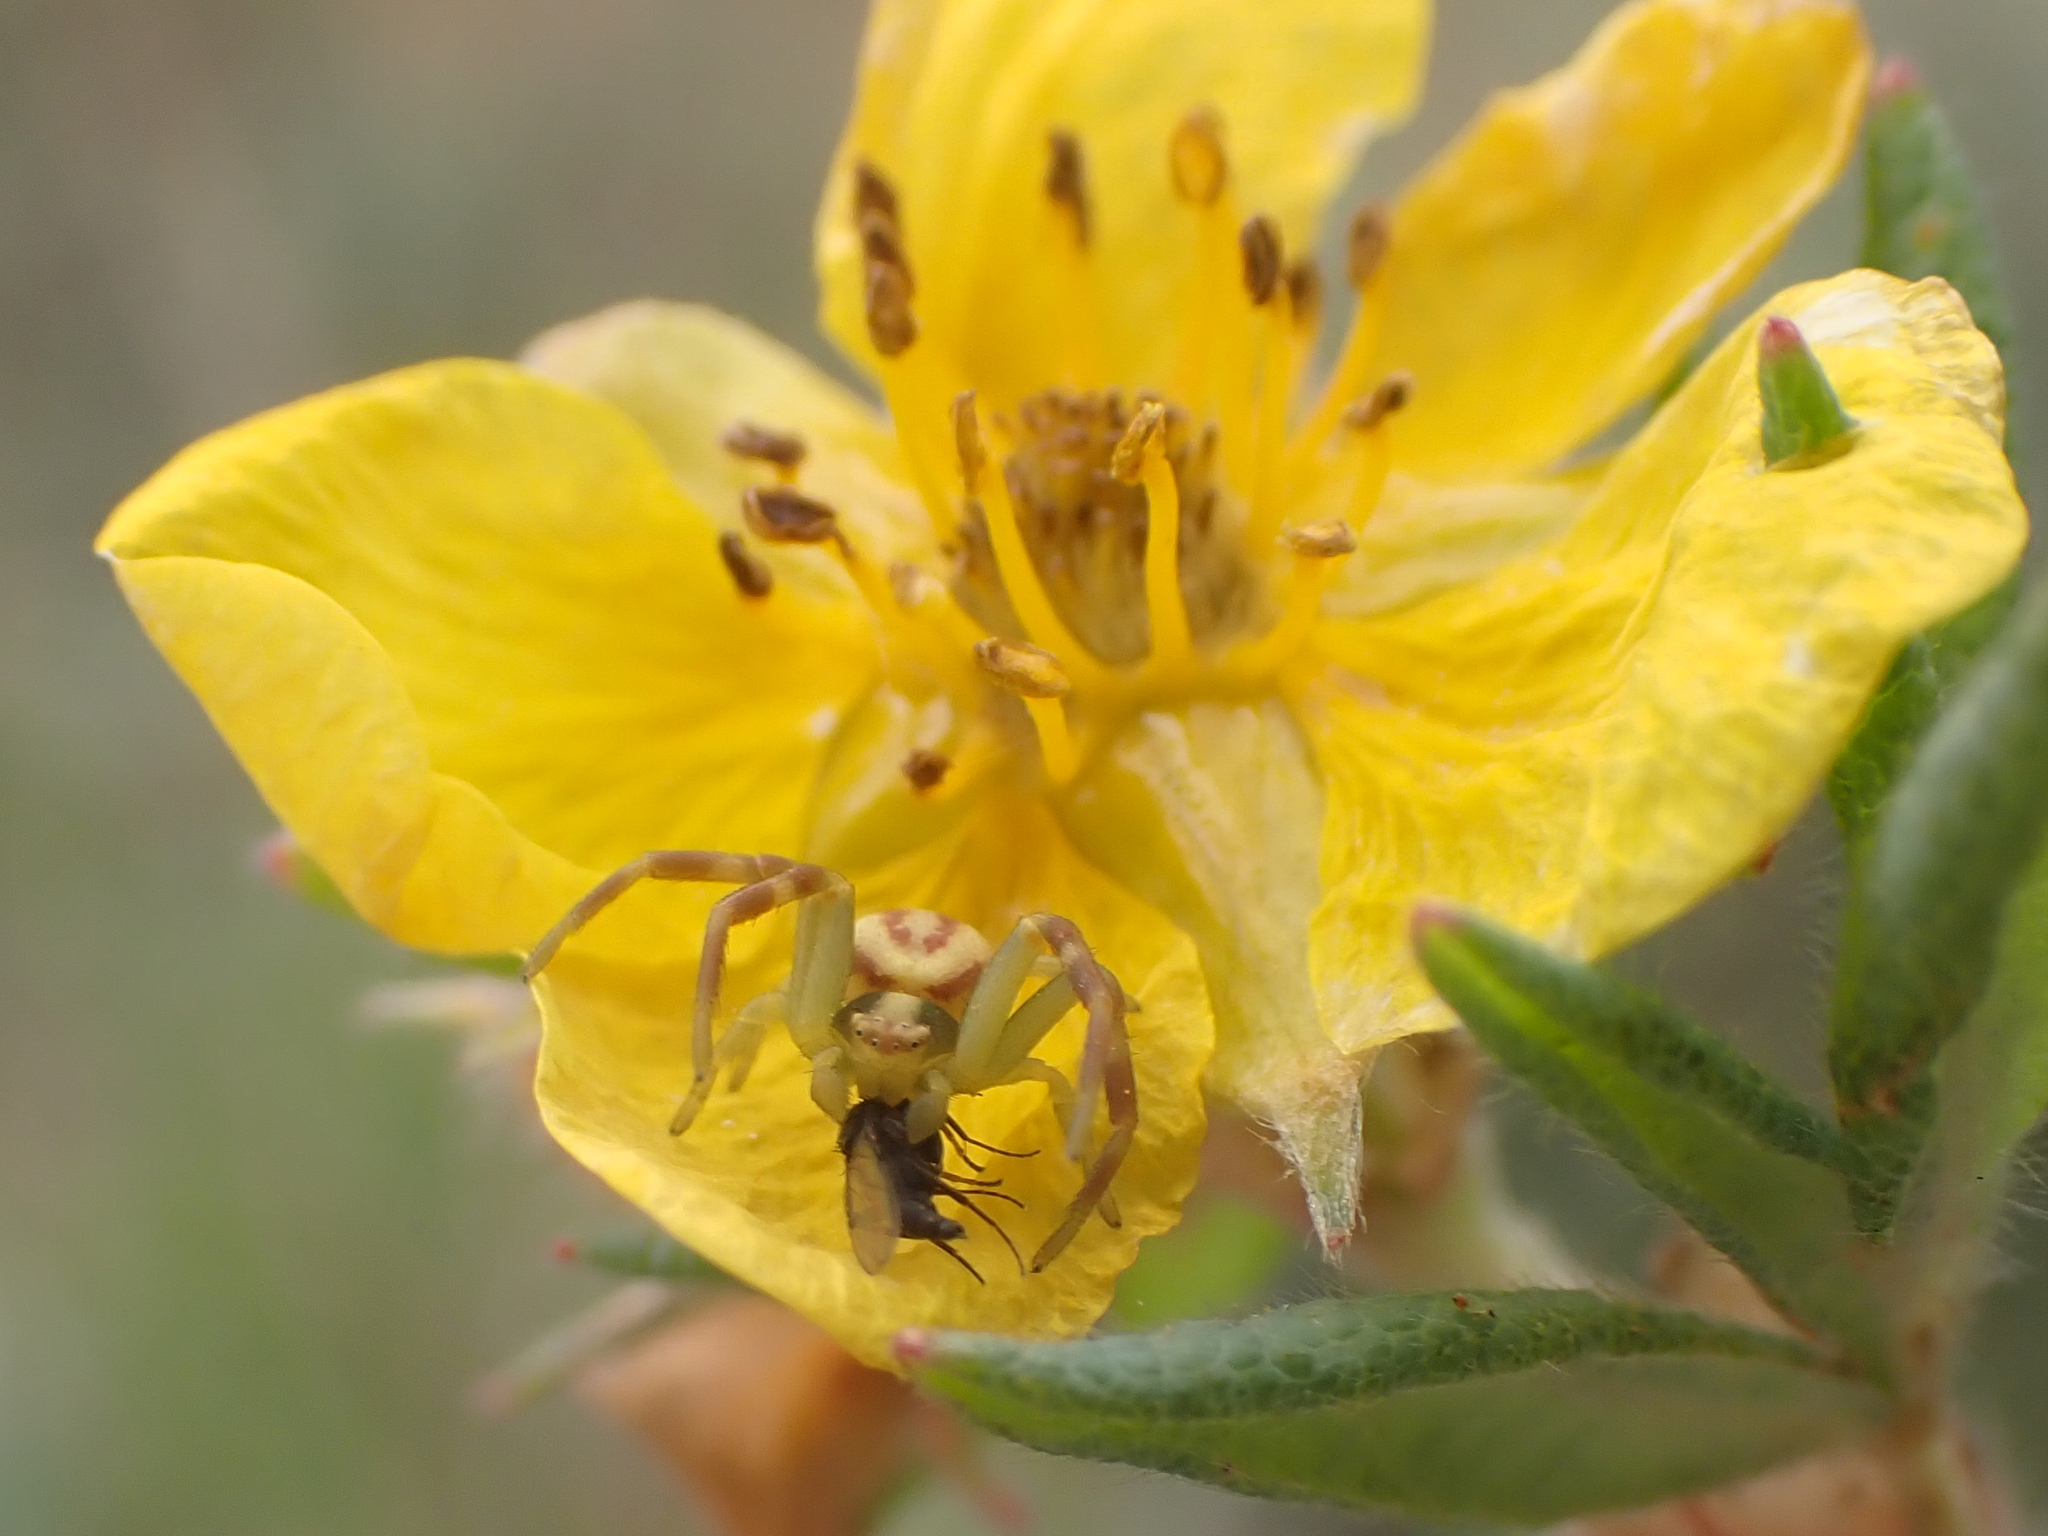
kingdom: Animalia
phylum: Arthropoda
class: Arachnida
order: Araneae
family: Thomisidae
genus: Misumena
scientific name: Misumena vatia
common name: Goldenrod crab spider
